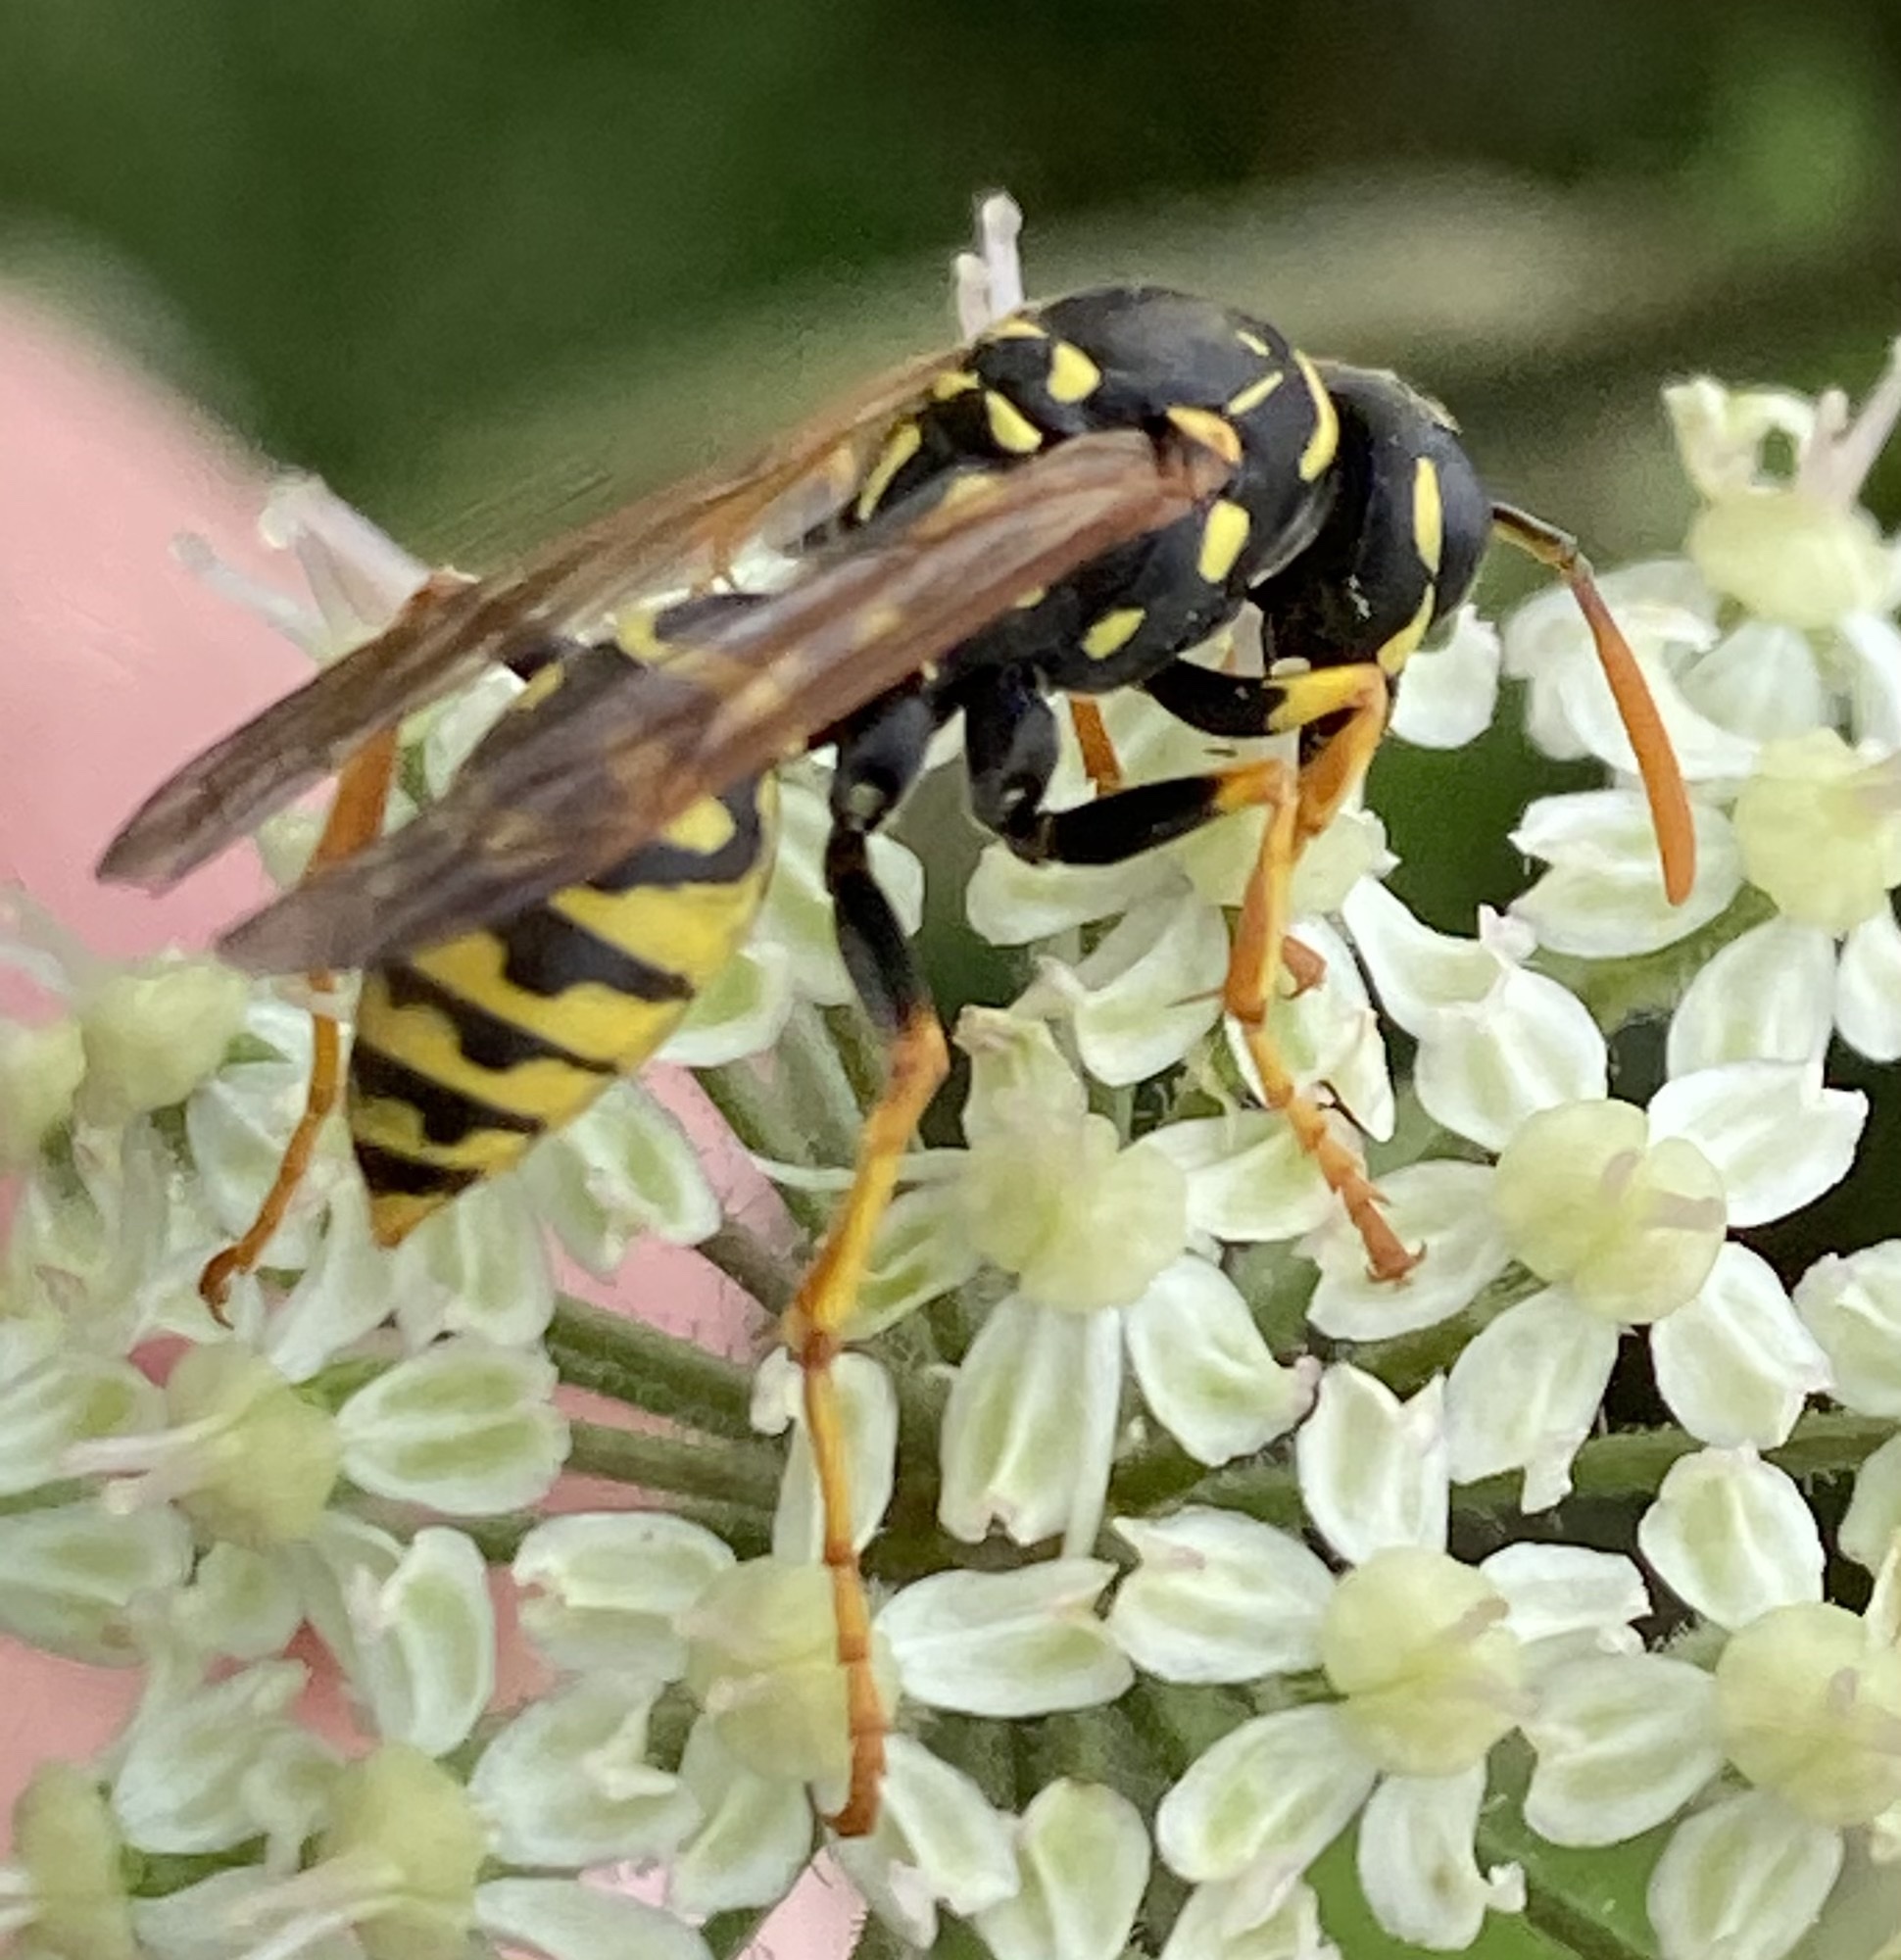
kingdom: Animalia
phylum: Arthropoda
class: Insecta
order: Hymenoptera
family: Eumenidae
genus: Polistes
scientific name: Polistes dominula
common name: Paper wasp
